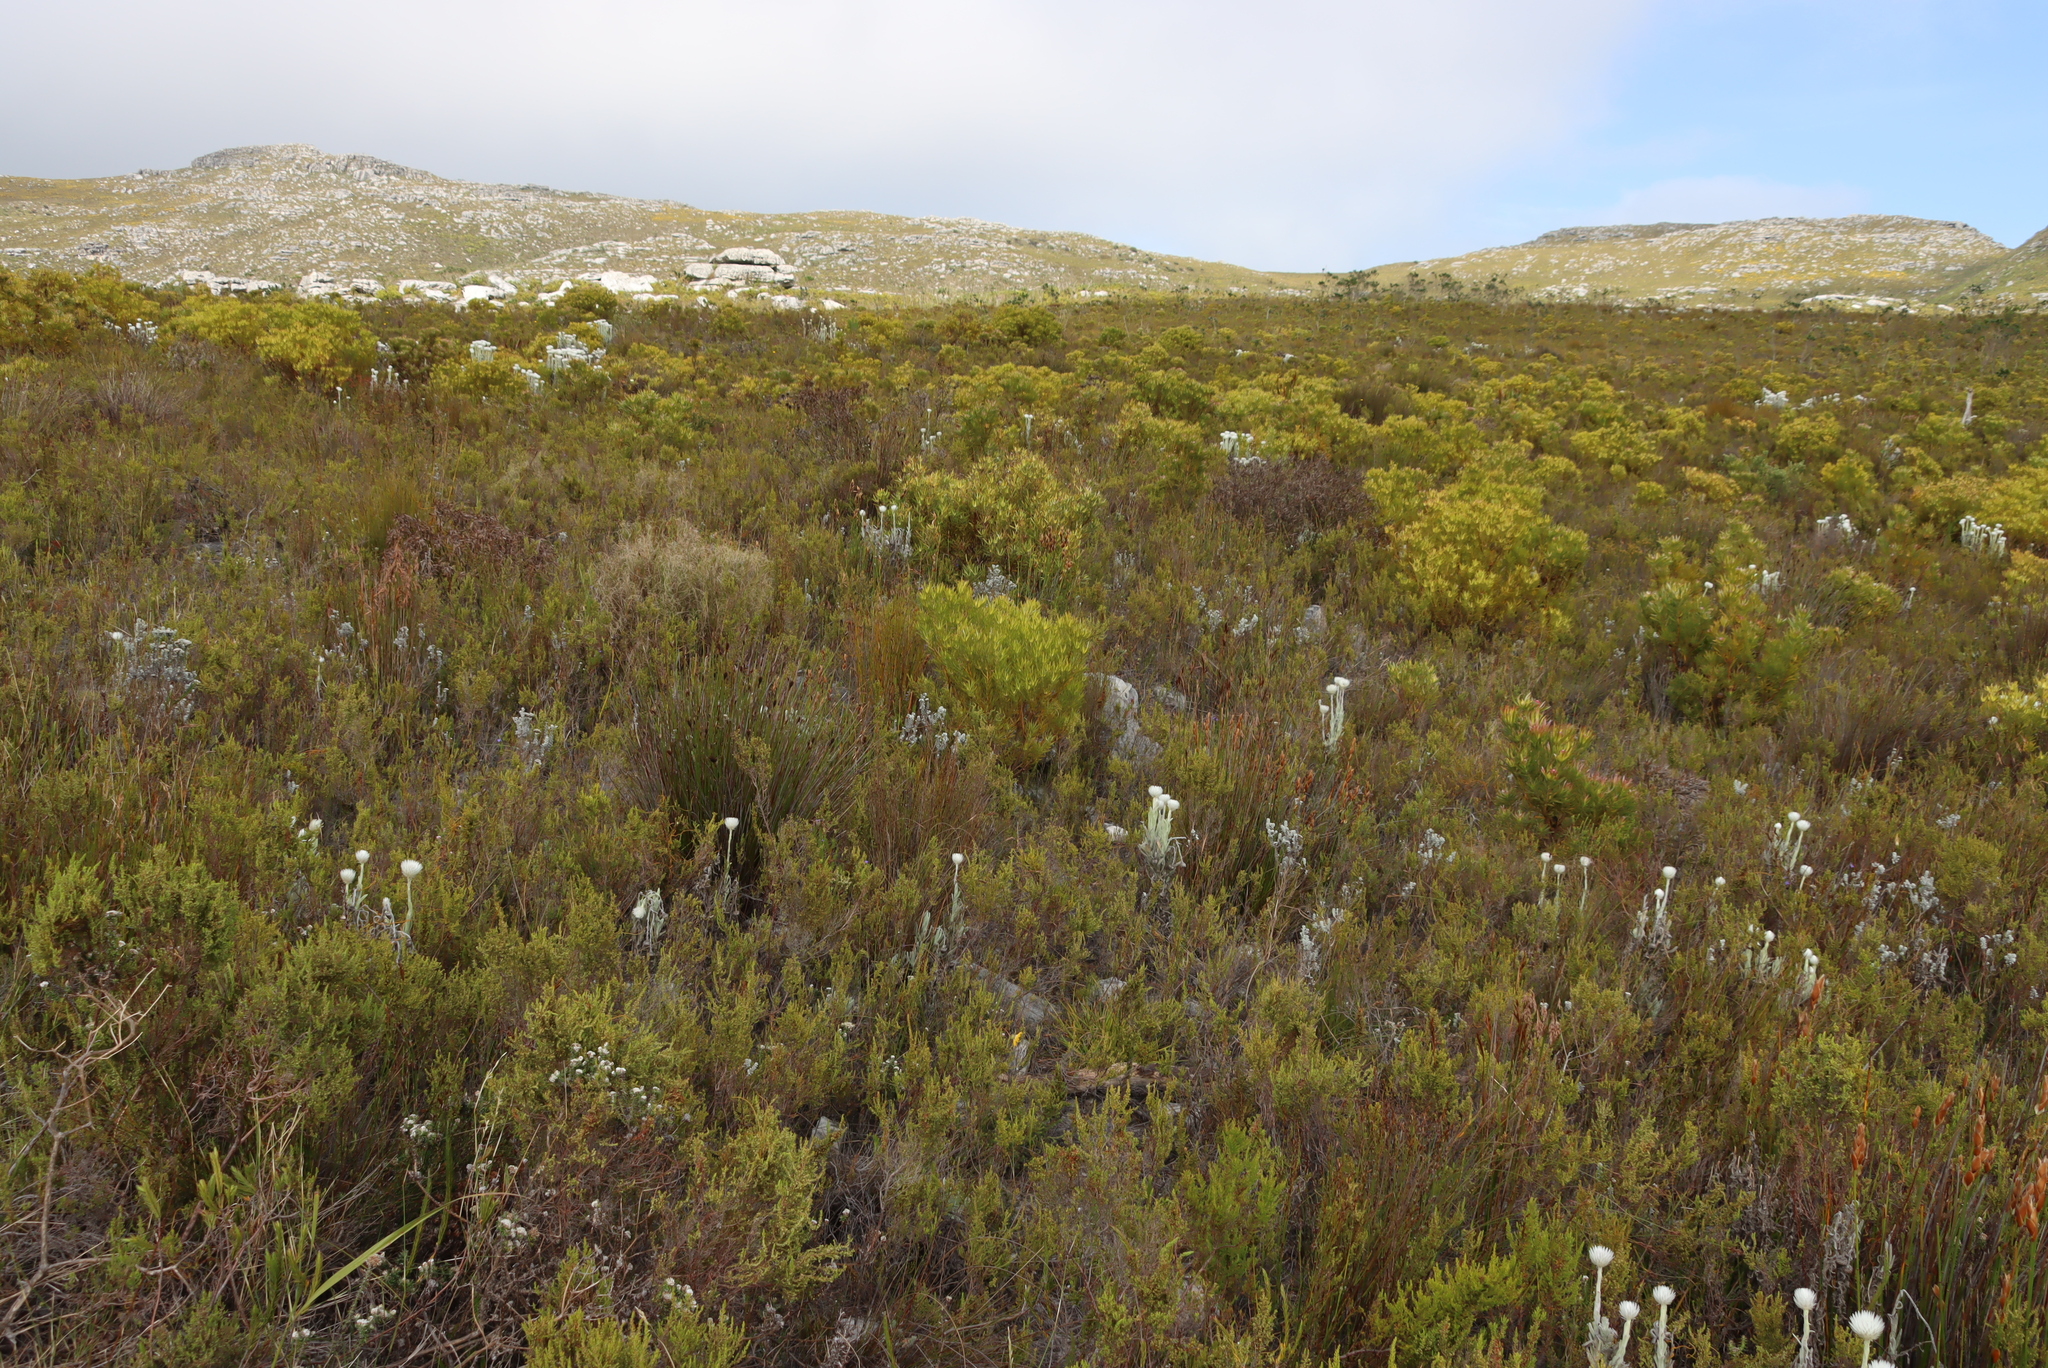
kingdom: Plantae
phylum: Tracheophyta
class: Magnoliopsida
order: Asterales
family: Asteraceae
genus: Syncarpha
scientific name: Syncarpha vestita
